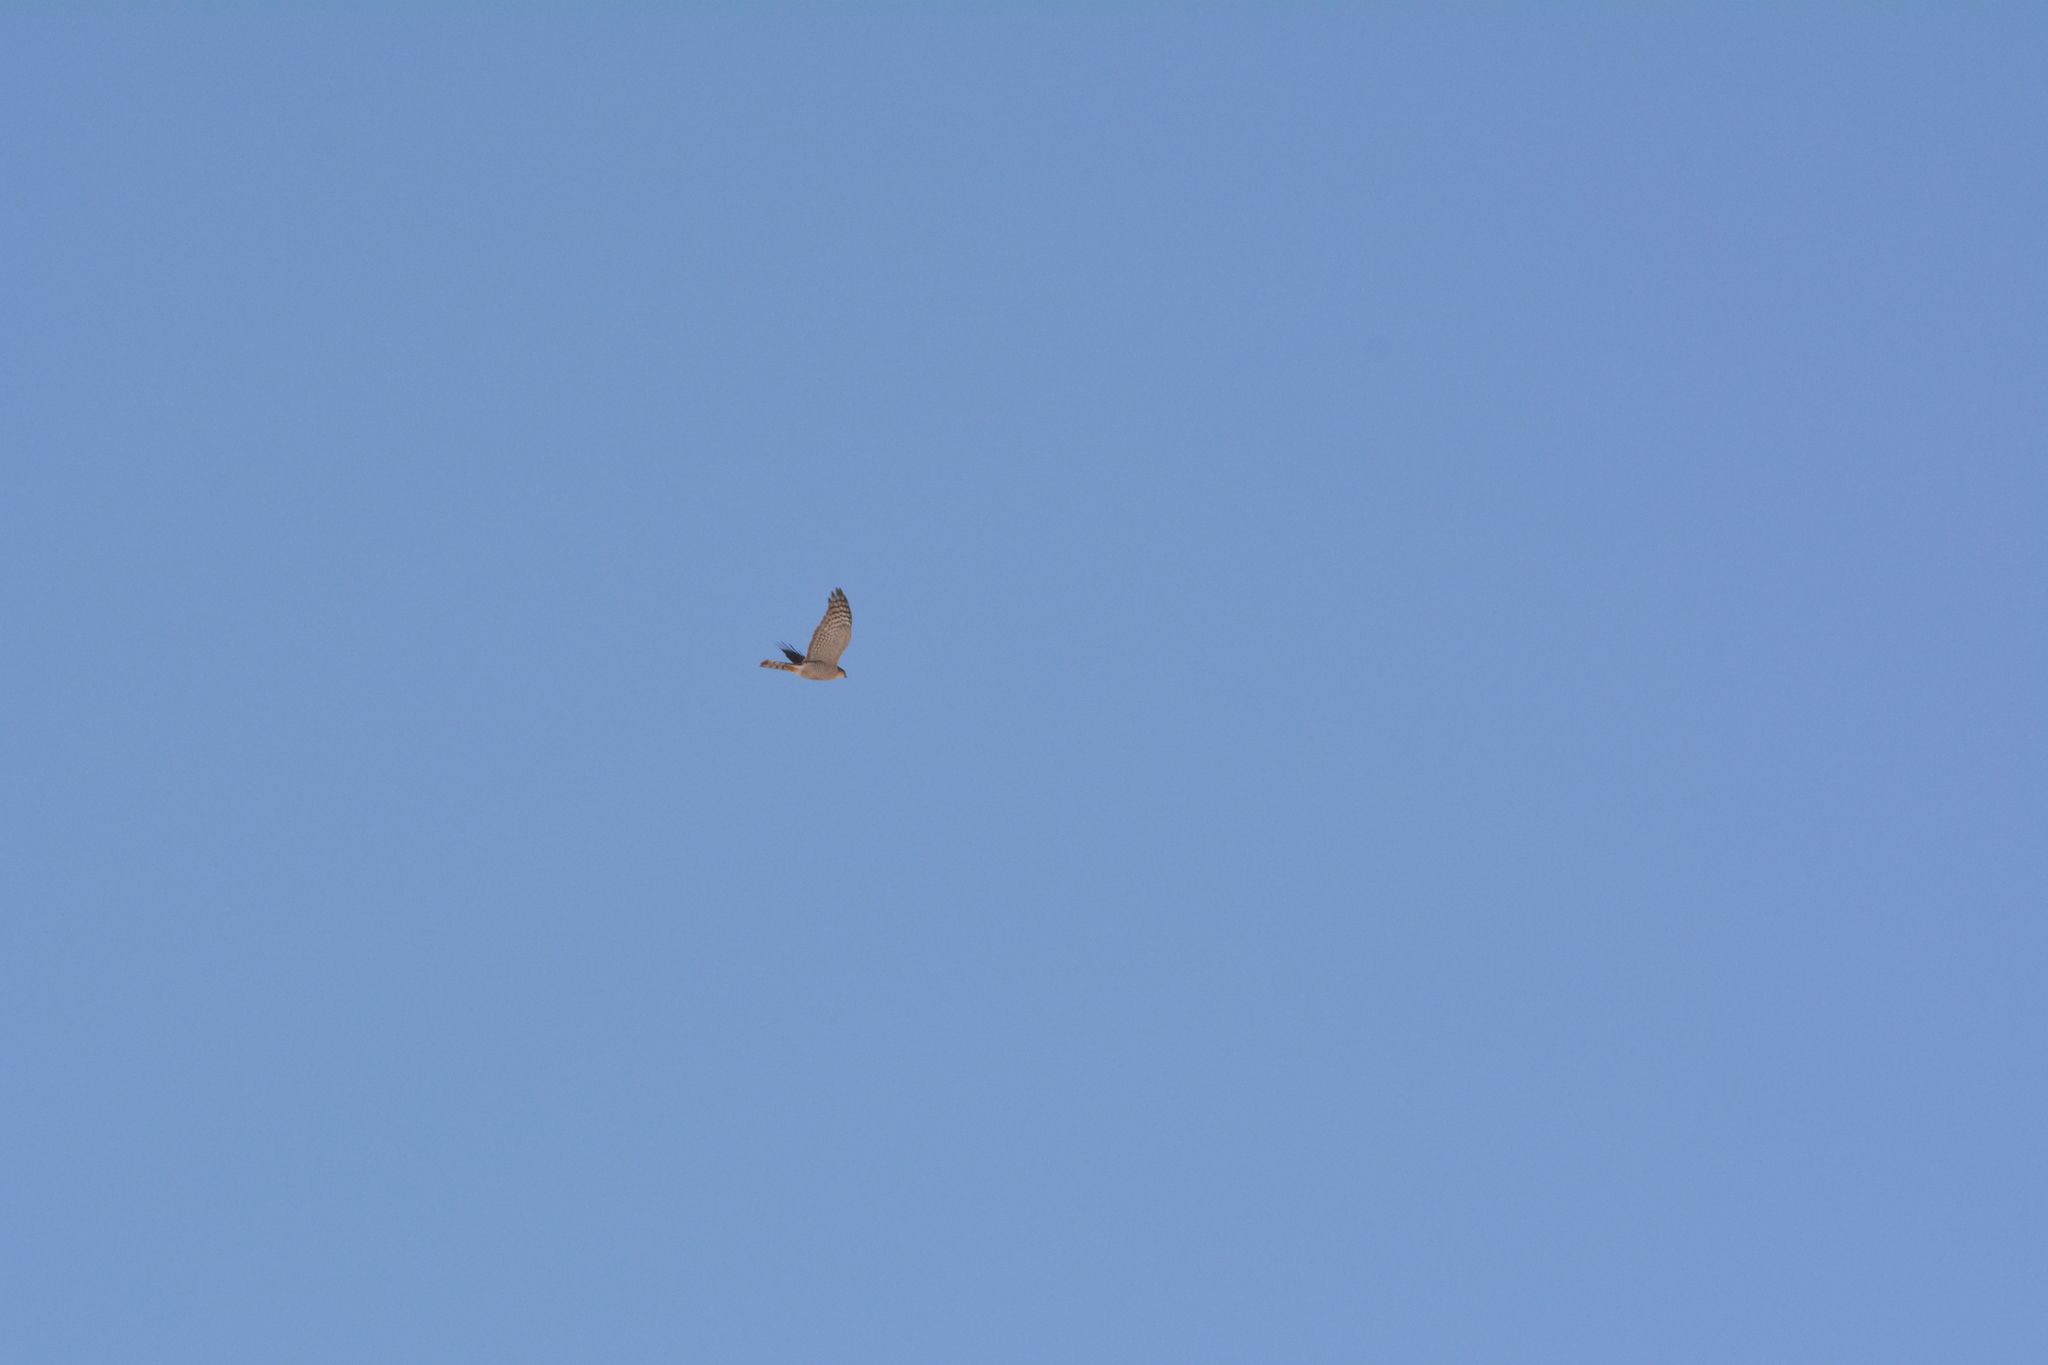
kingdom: Animalia
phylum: Chordata
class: Aves
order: Accipitriformes
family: Accipitridae
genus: Accipiter
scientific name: Accipiter nisus
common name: Eurasian sparrowhawk
